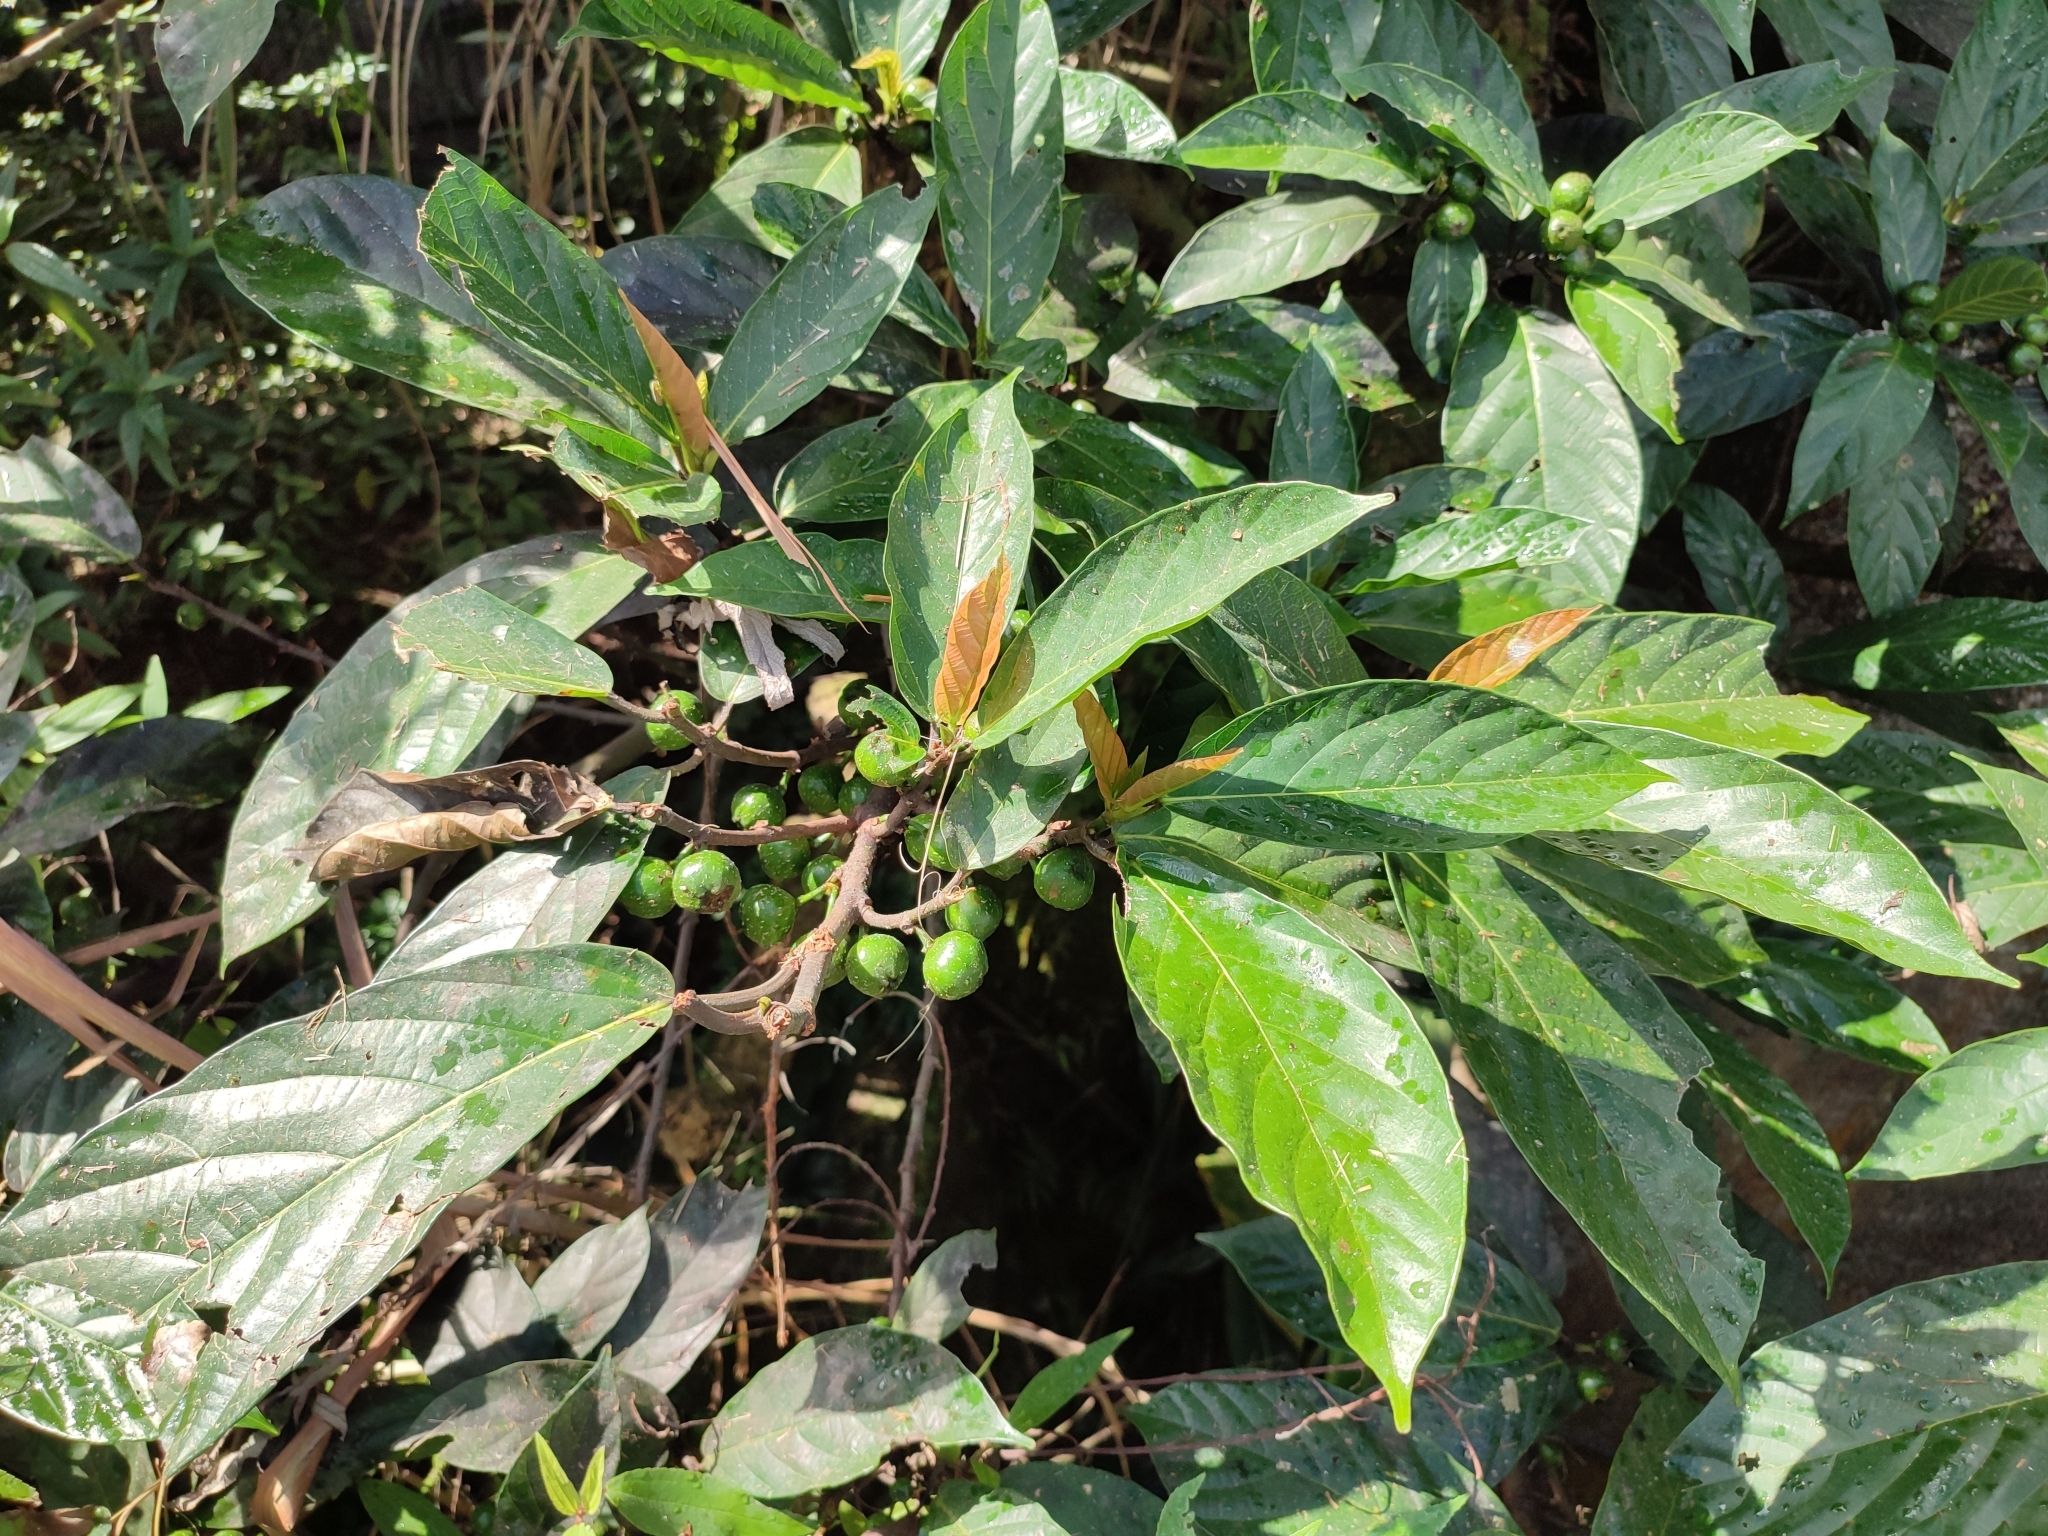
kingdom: Plantae
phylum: Tracheophyta
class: Magnoliopsida
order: Rosales
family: Moraceae
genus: Ficus
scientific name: Ficus benguetensis
